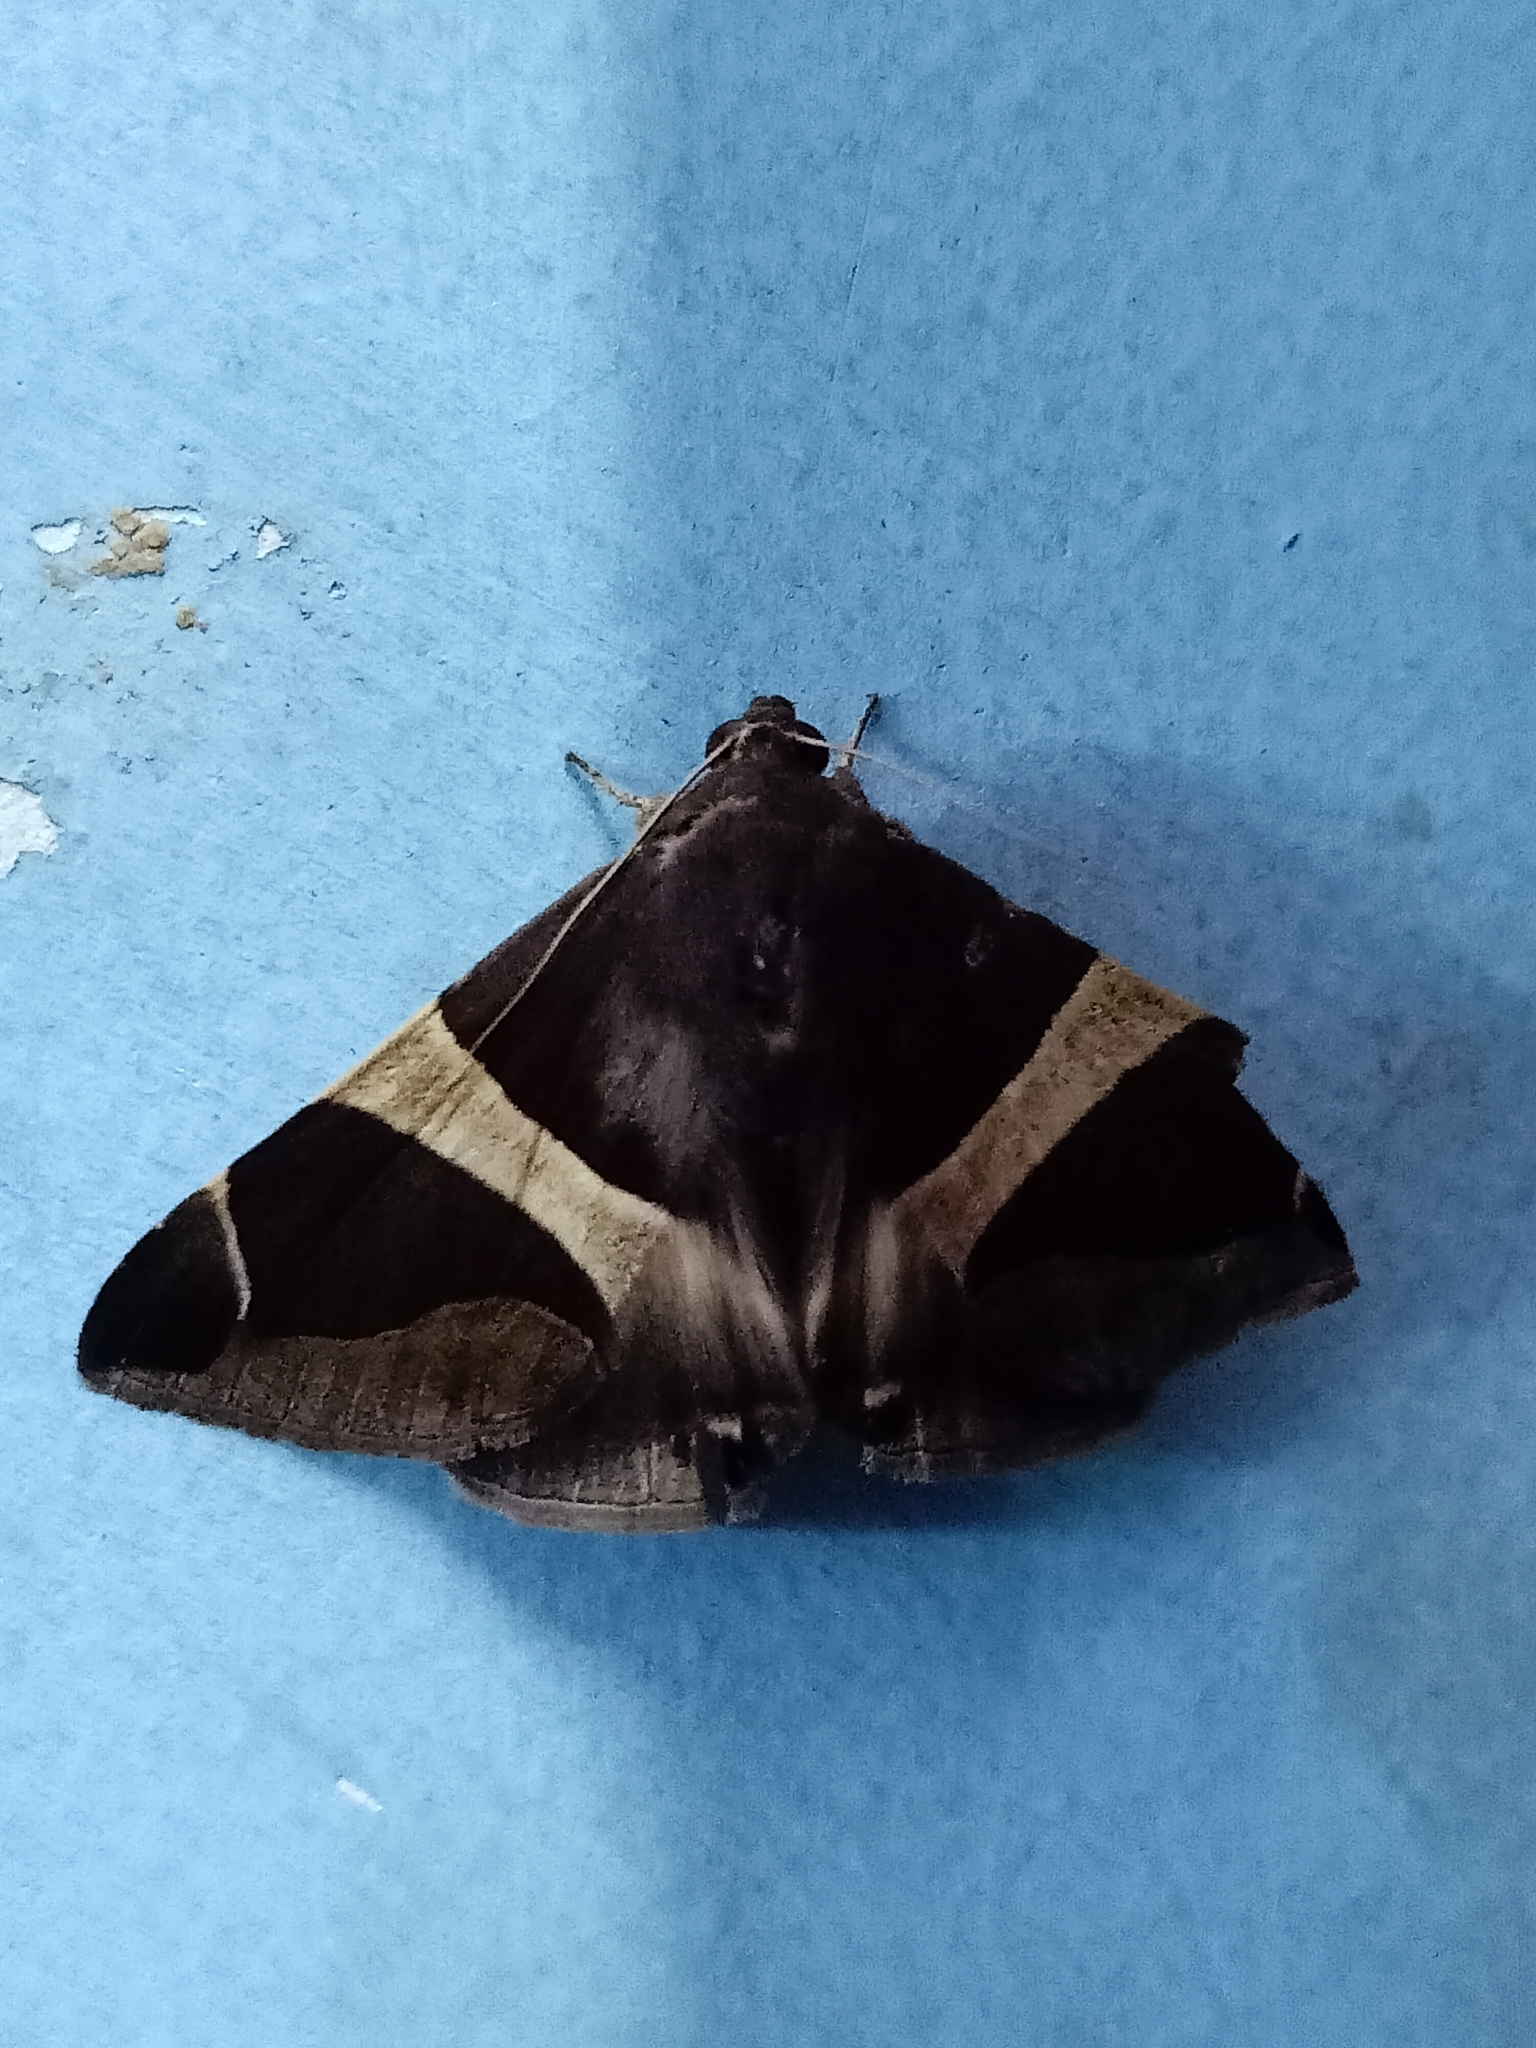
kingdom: Animalia
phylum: Arthropoda
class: Insecta
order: Lepidoptera
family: Erebidae
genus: Bastilla
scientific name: Bastilla crameri
